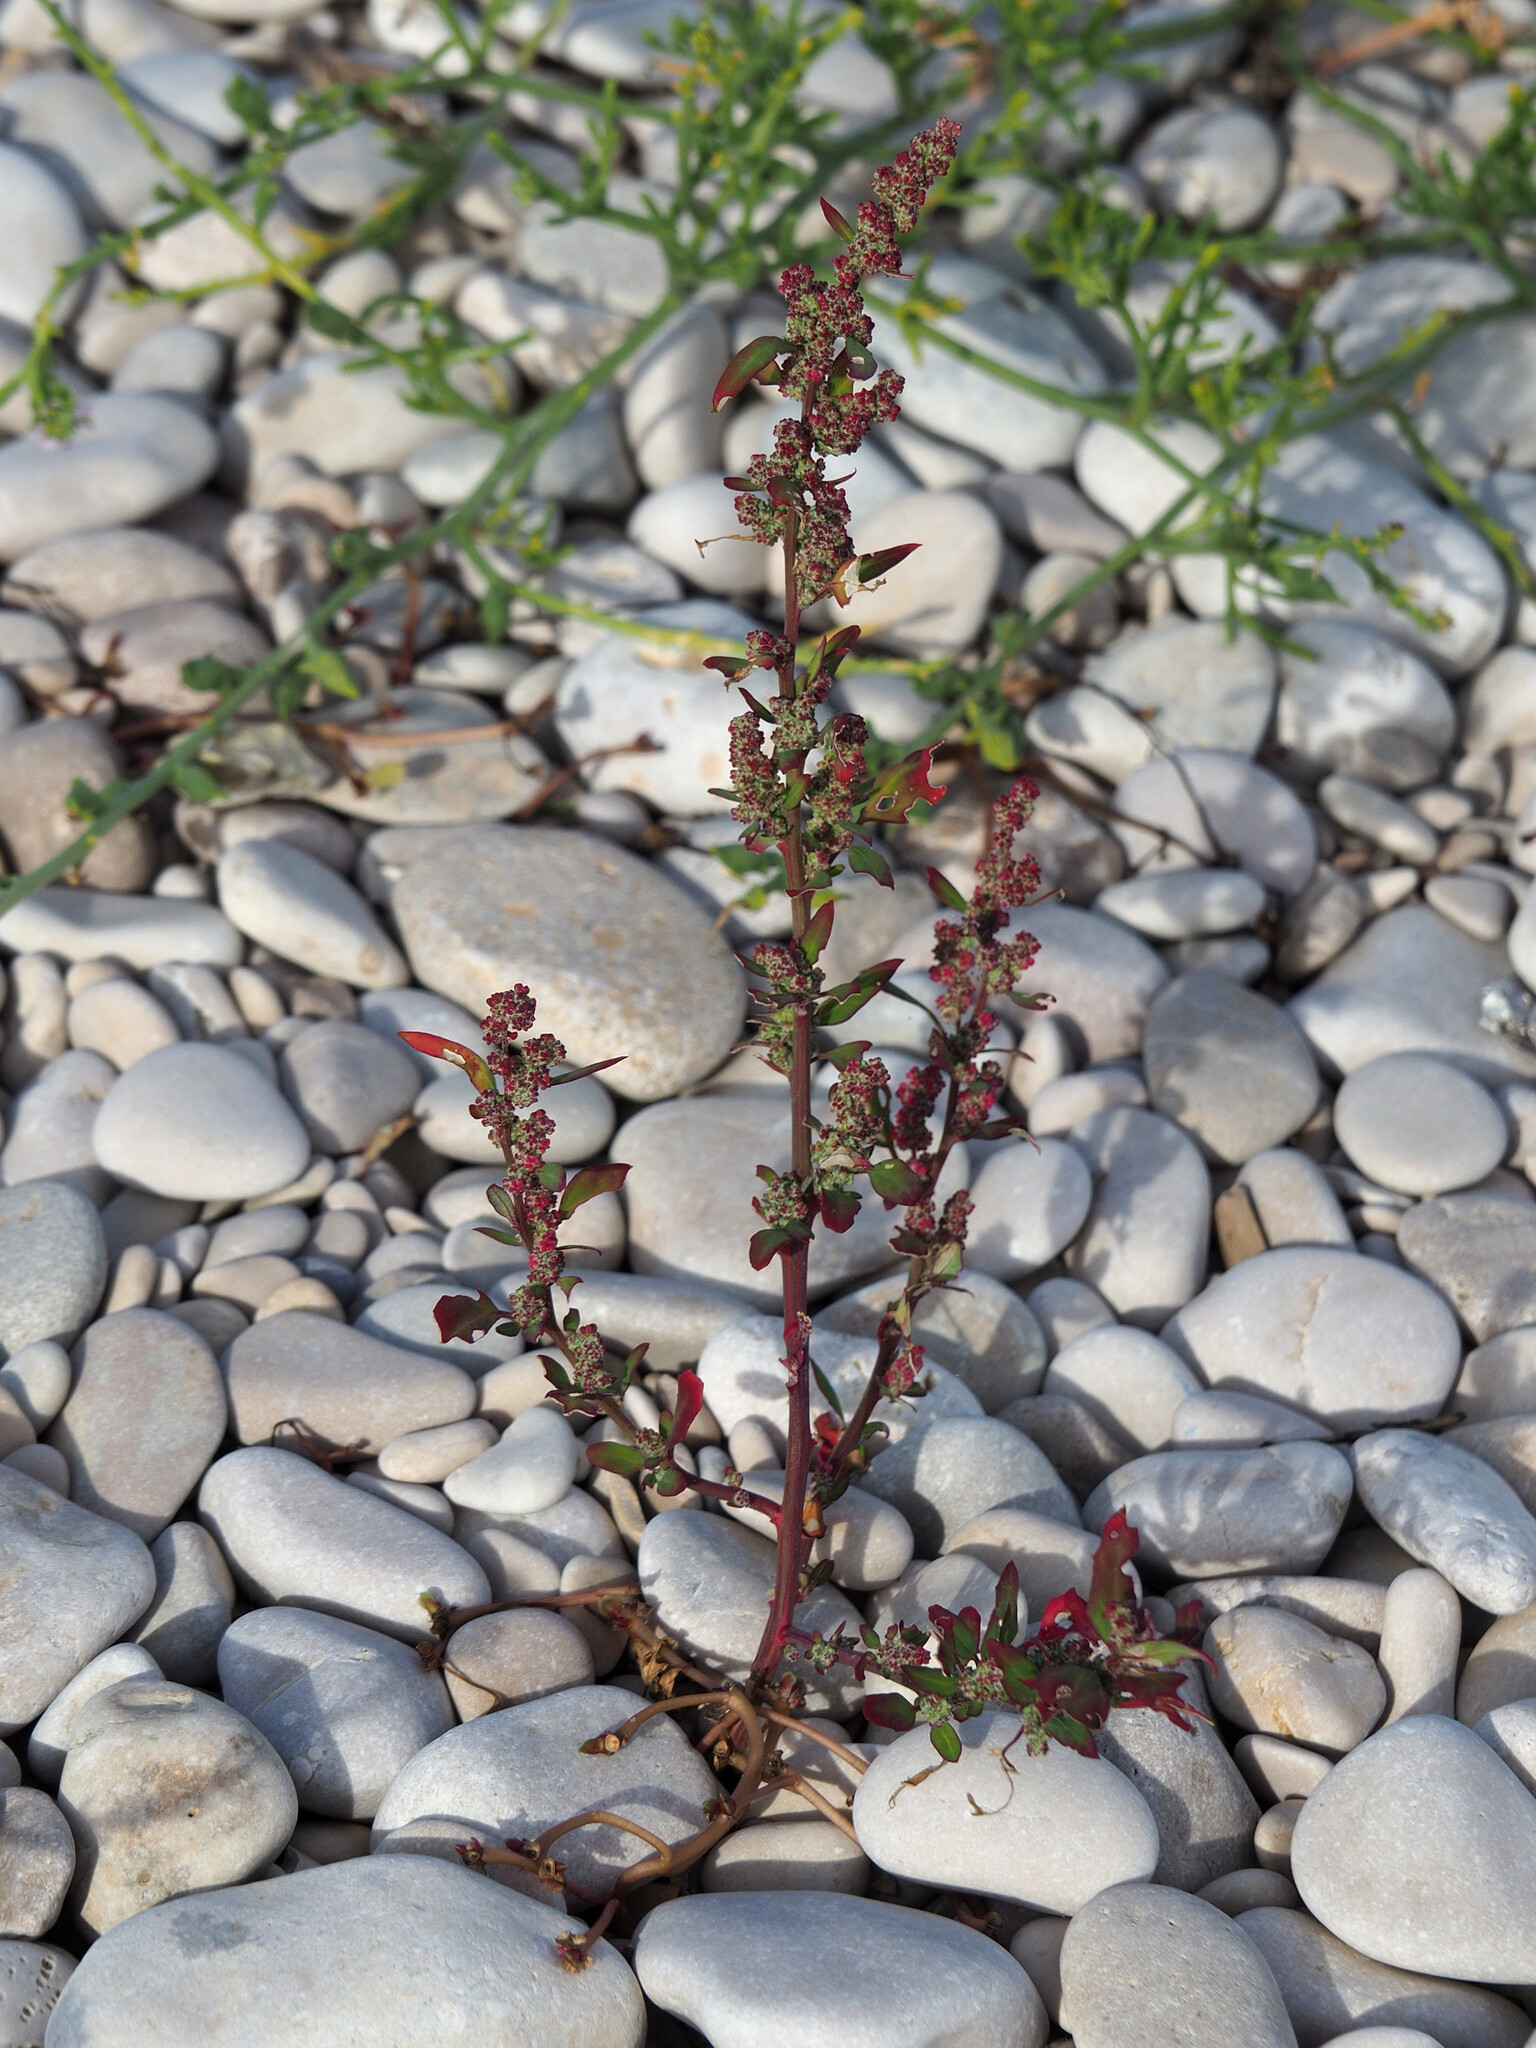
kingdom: Plantae
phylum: Tracheophyta
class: Magnoliopsida
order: Caryophyllales
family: Amaranthaceae
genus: Chenopodiastrum
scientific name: Chenopodiastrum murale
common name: Sowbane
